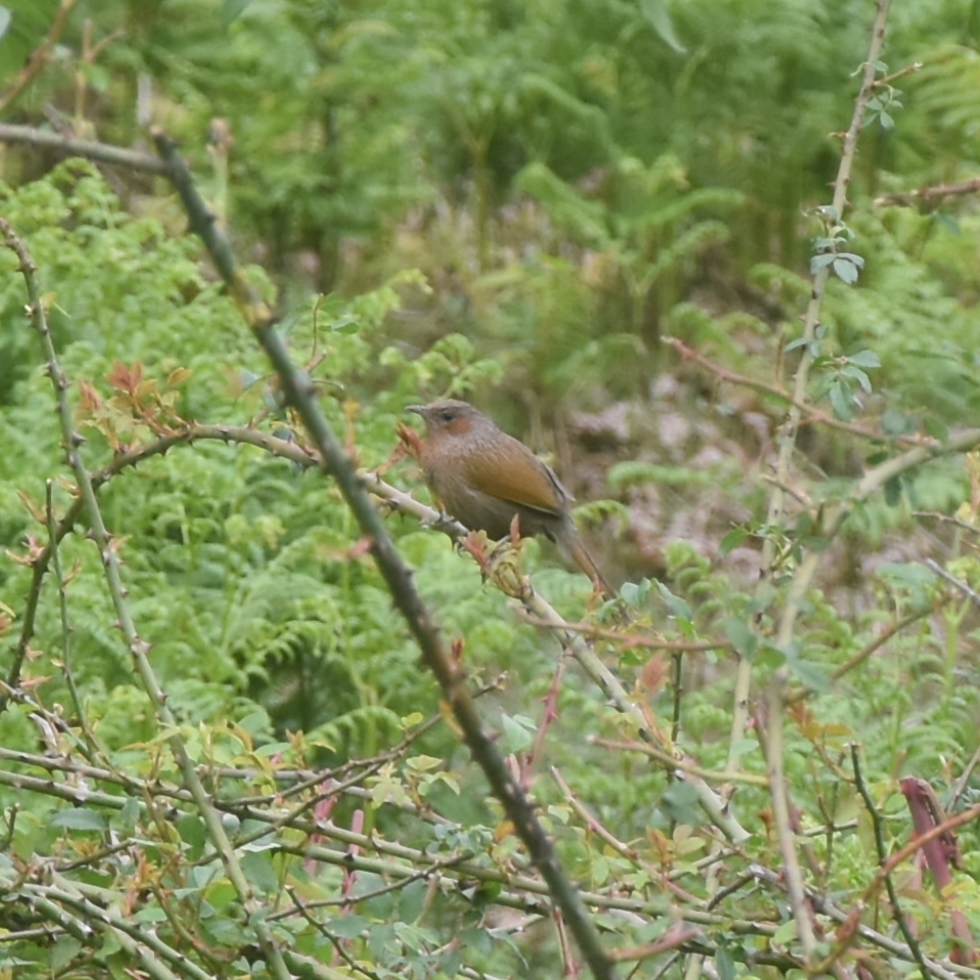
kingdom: Animalia
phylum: Chordata
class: Aves
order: Passeriformes
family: Leiothrichidae
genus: Trochalopteron
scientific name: Trochalopteron lineatum
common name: Streaked laughingthrush
